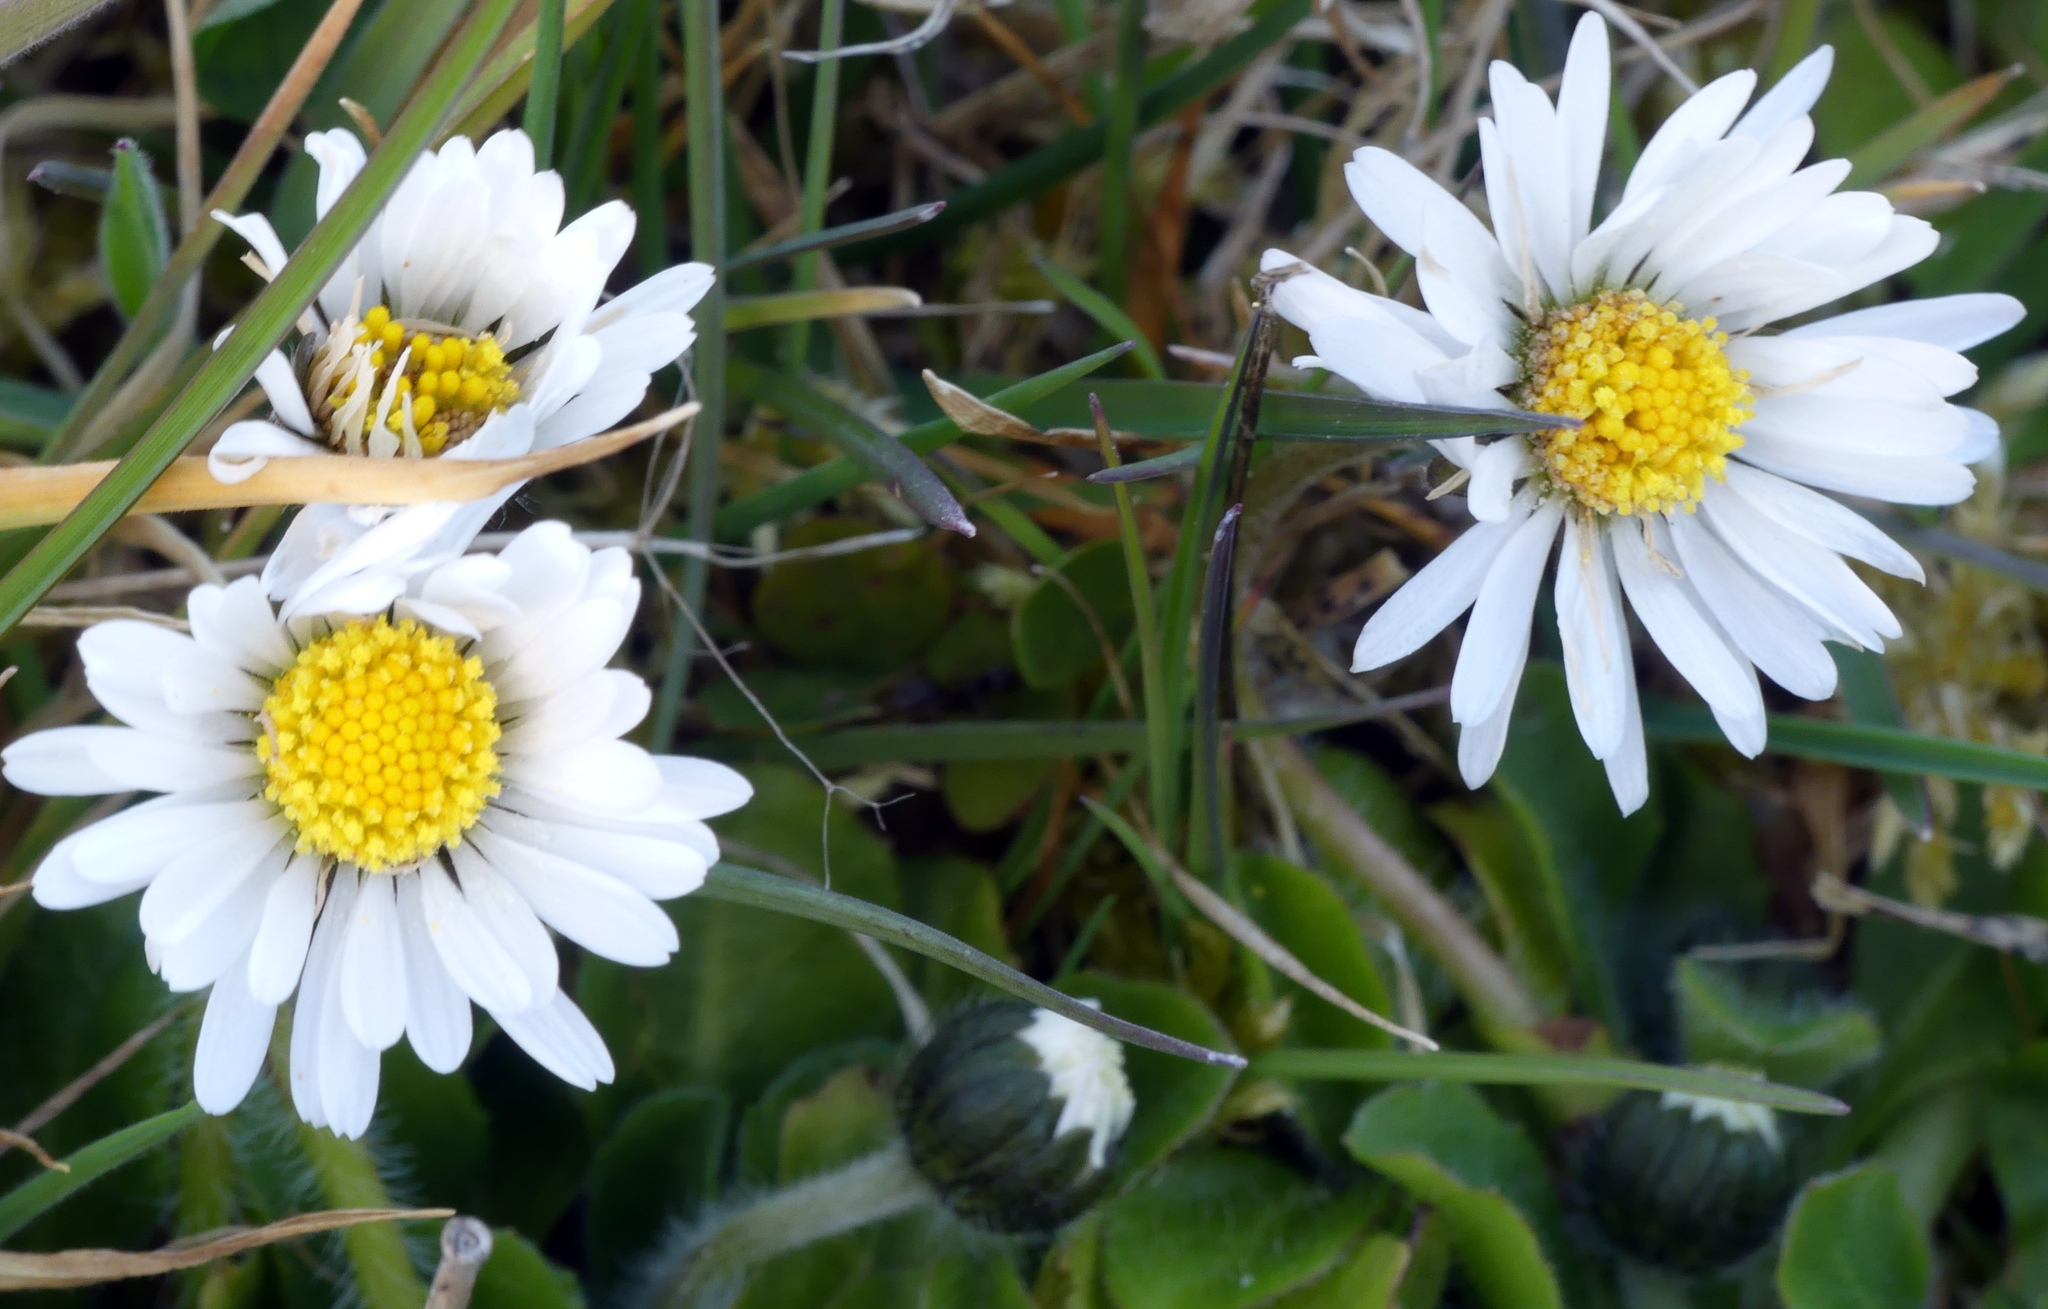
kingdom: Plantae
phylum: Tracheophyta
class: Magnoliopsida
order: Asterales
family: Asteraceae
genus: Bellis
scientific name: Bellis perennis
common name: Lawndaisy
